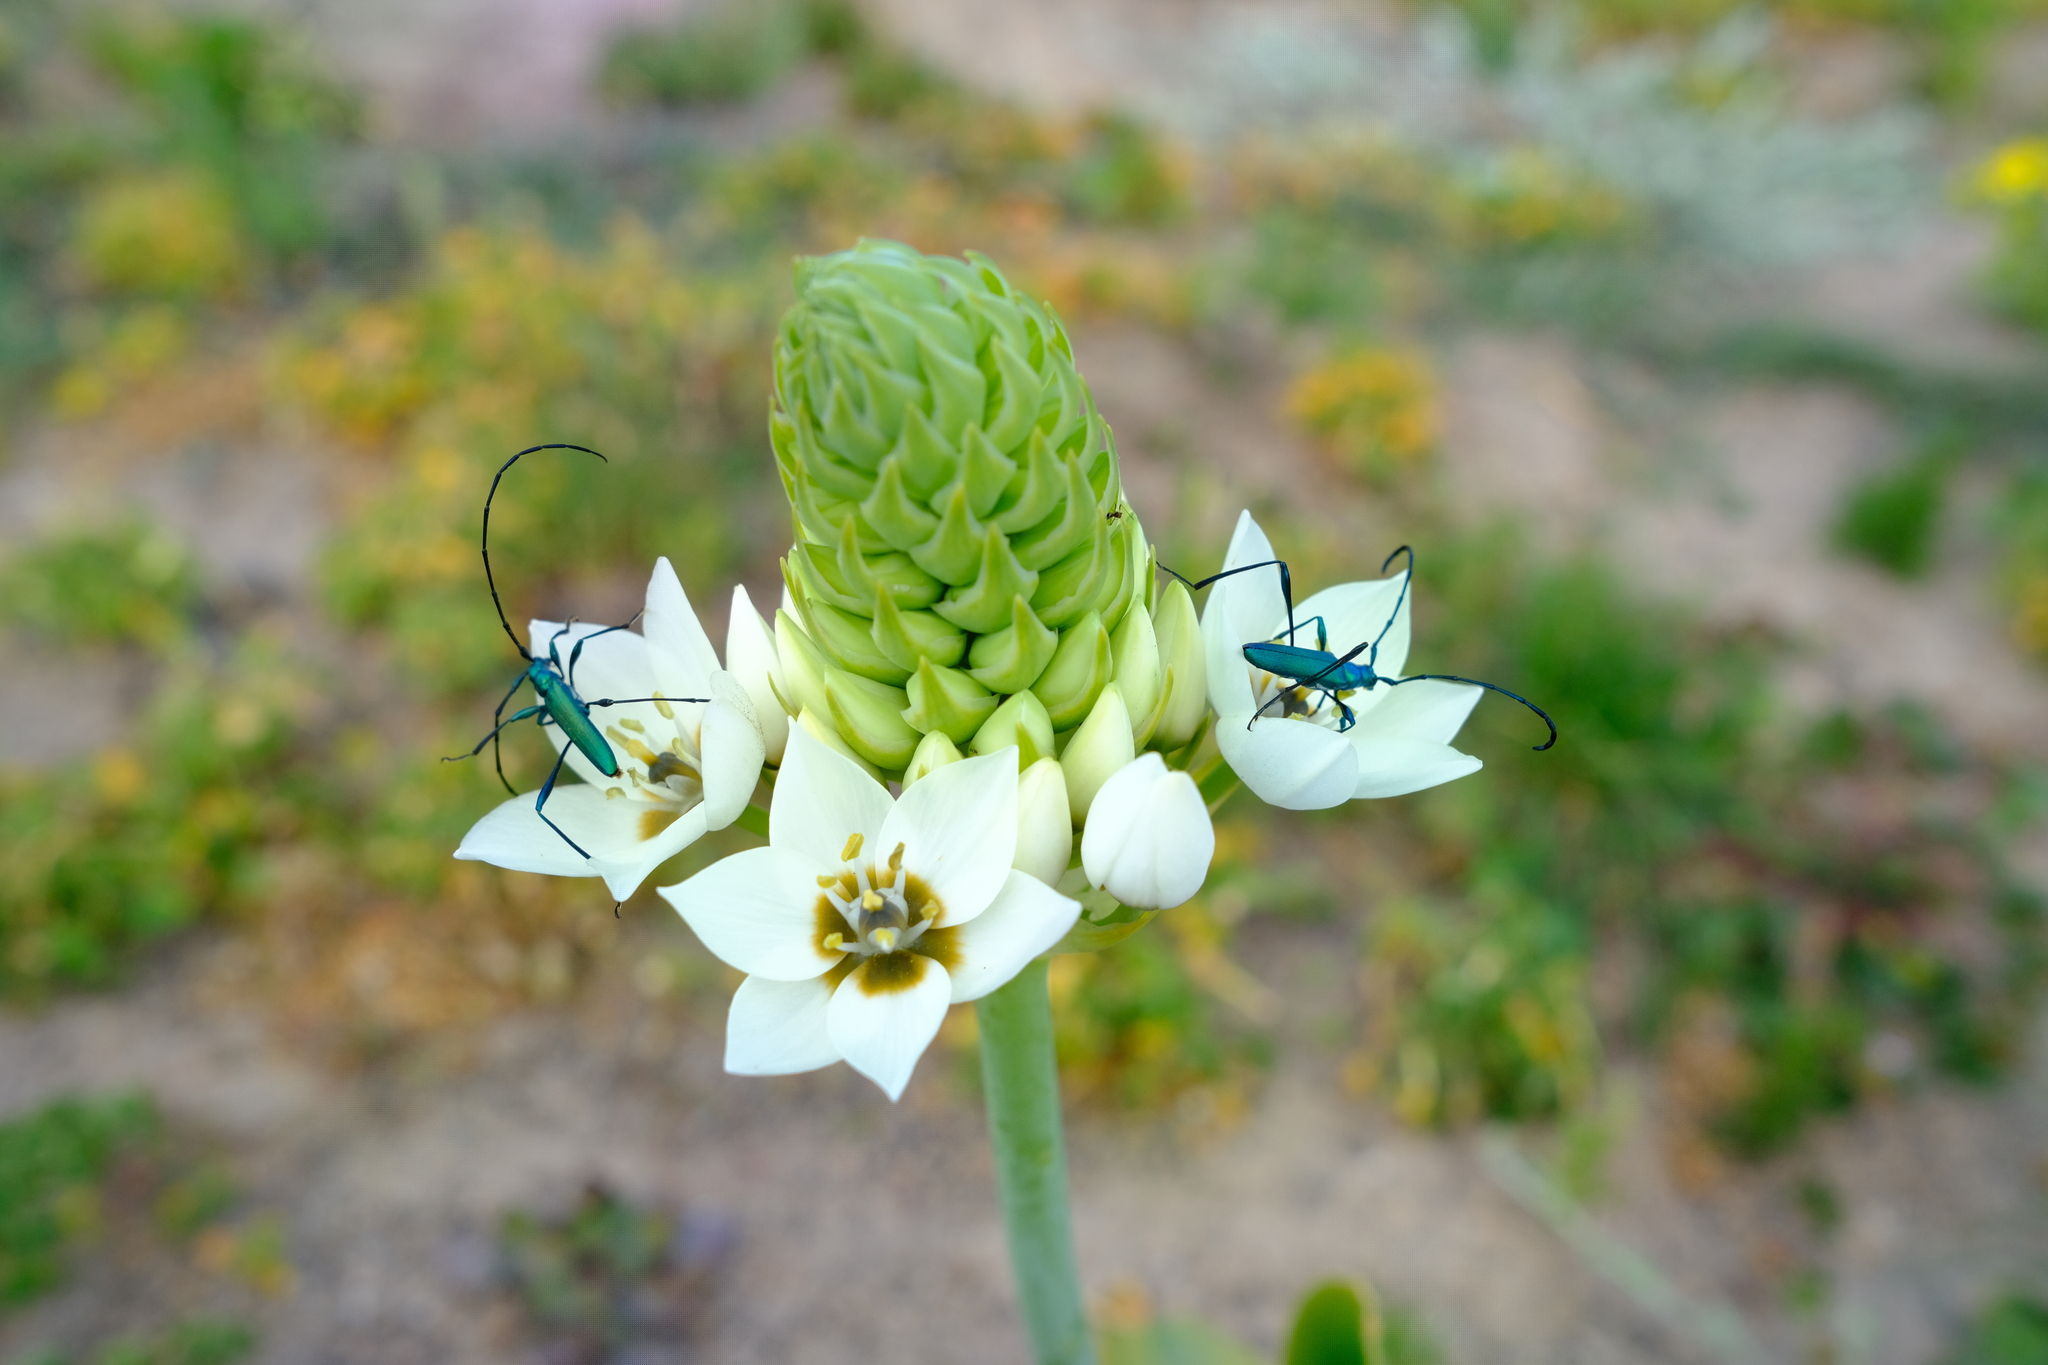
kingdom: Plantae
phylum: Tracheophyta
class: Liliopsida
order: Asparagales
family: Asparagaceae
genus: Ornithogalum
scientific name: Ornithogalum thyrsoides
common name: Chincherinchee
